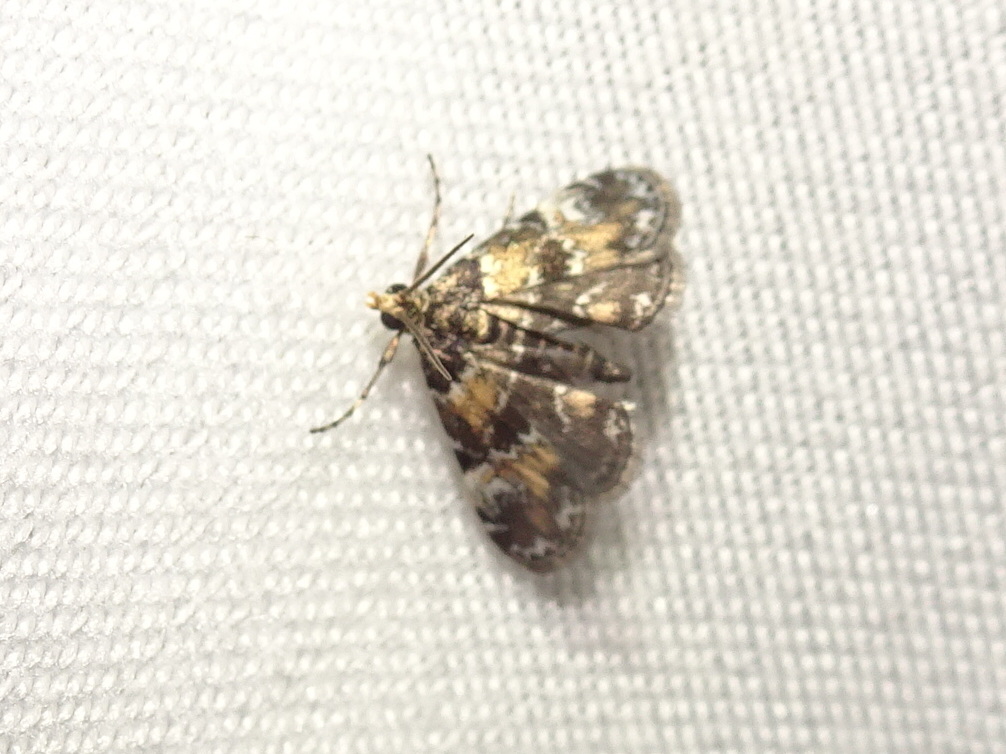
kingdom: Animalia
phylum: Arthropoda
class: Insecta
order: Lepidoptera
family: Crambidae
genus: Elophila
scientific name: Elophila obliteralis
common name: Waterlily leafcutter moth
